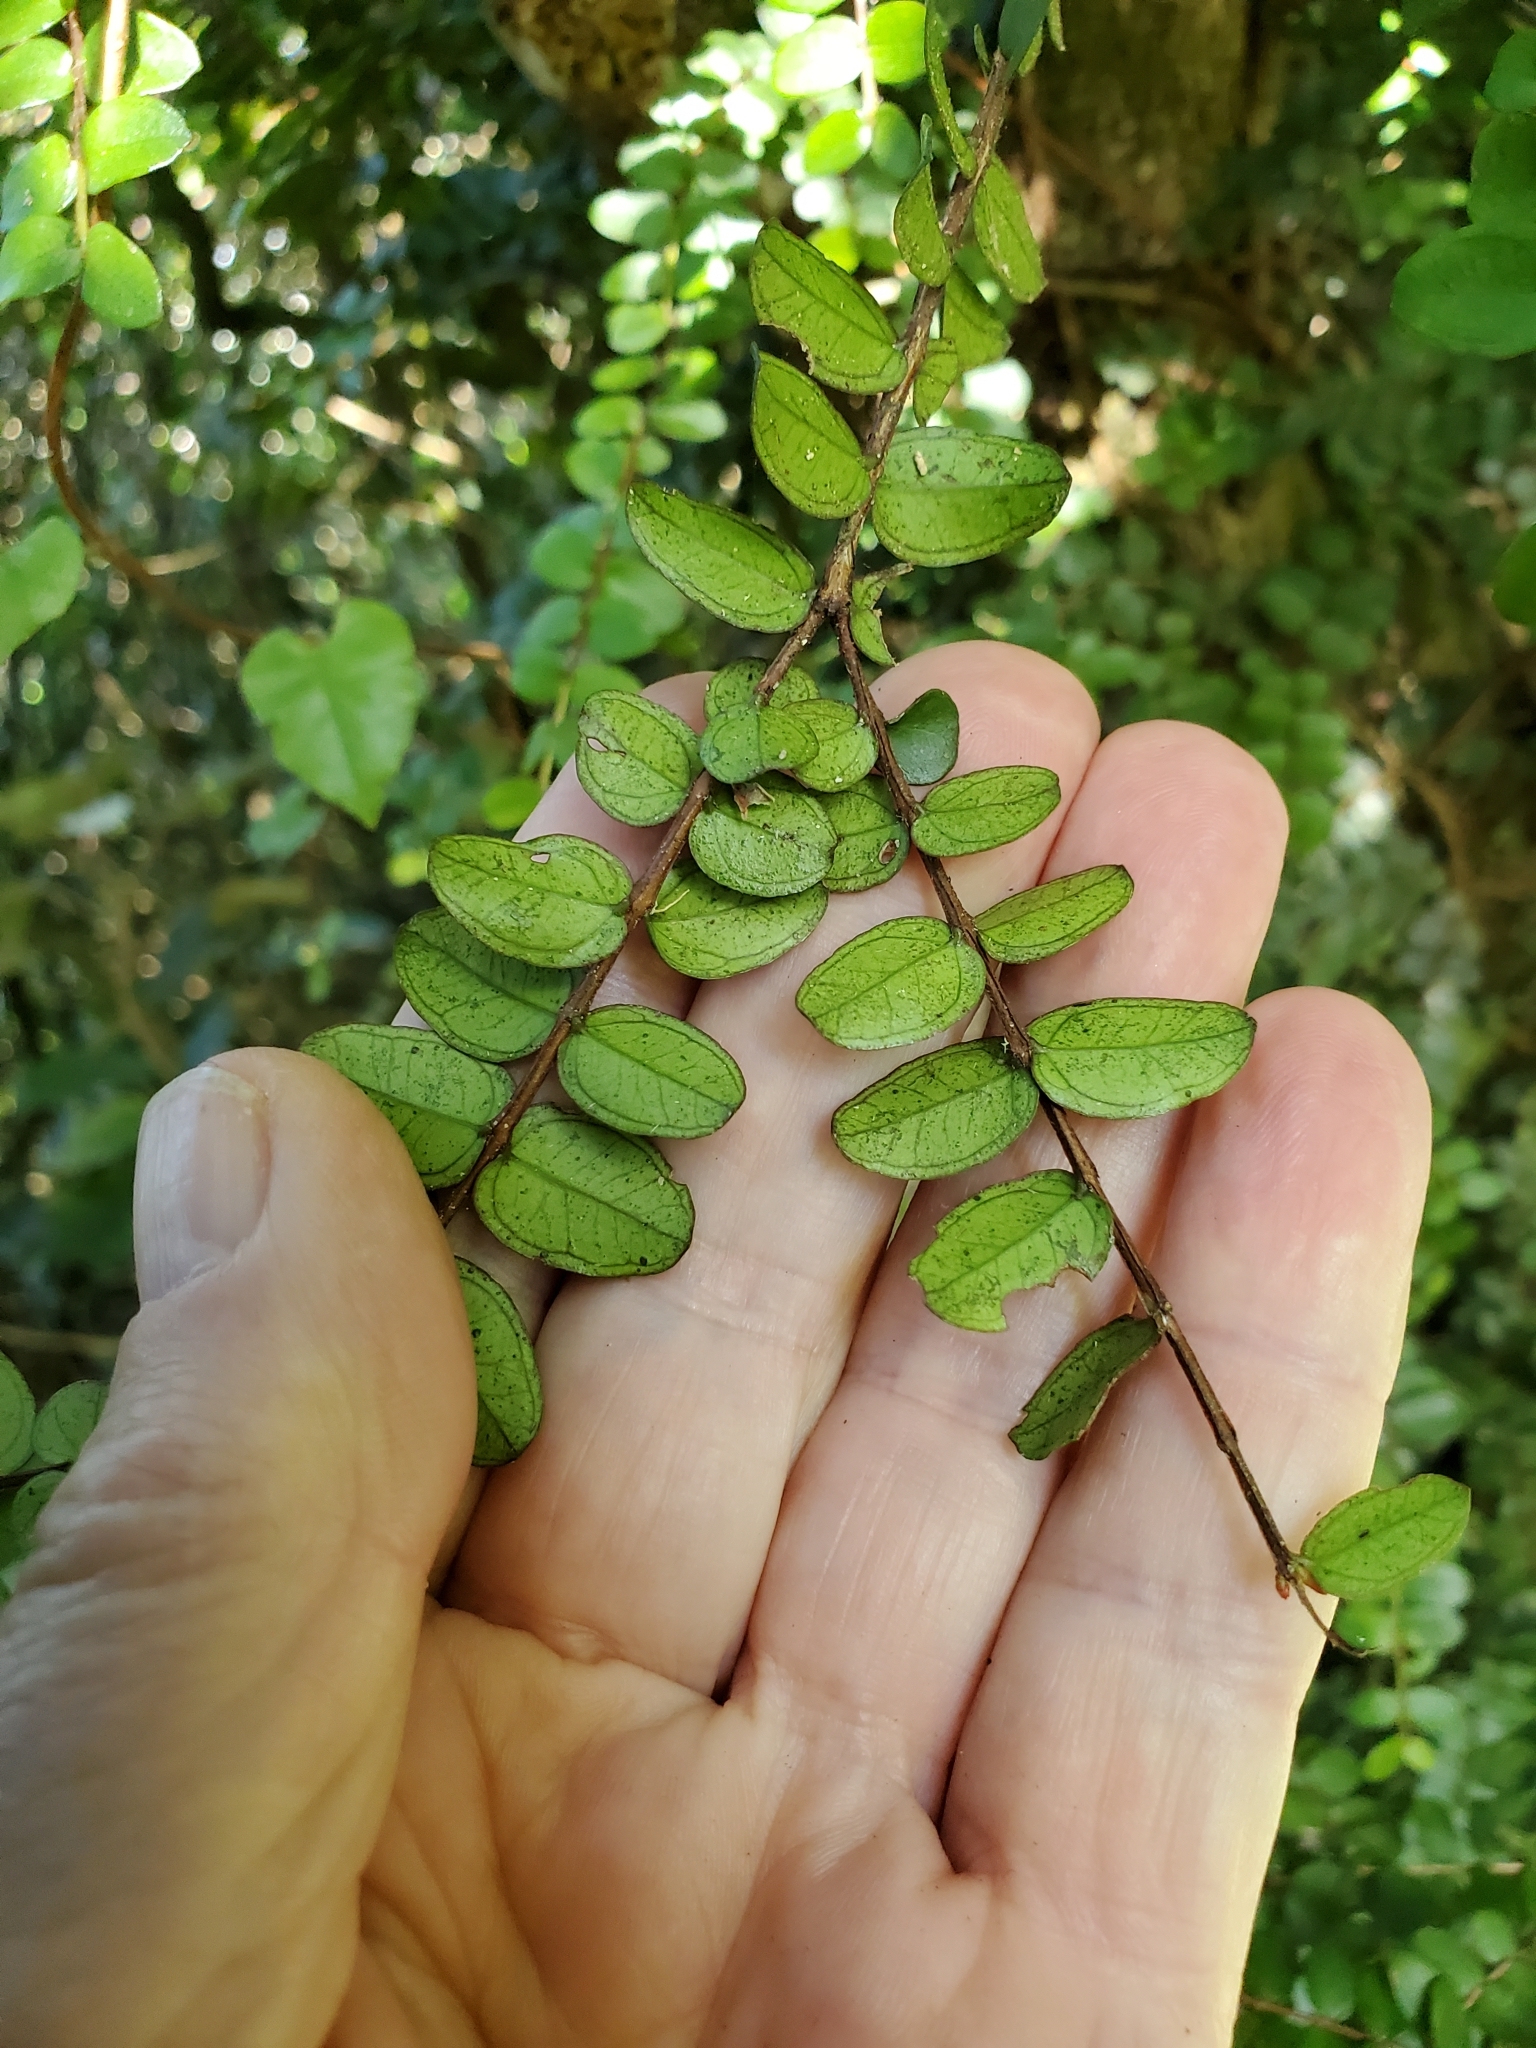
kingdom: Plantae
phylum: Tracheophyta
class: Magnoliopsida
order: Myrtales
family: Myrtaceae
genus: Metrosideros
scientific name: Metrosideros diffusa
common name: Small ratavine
